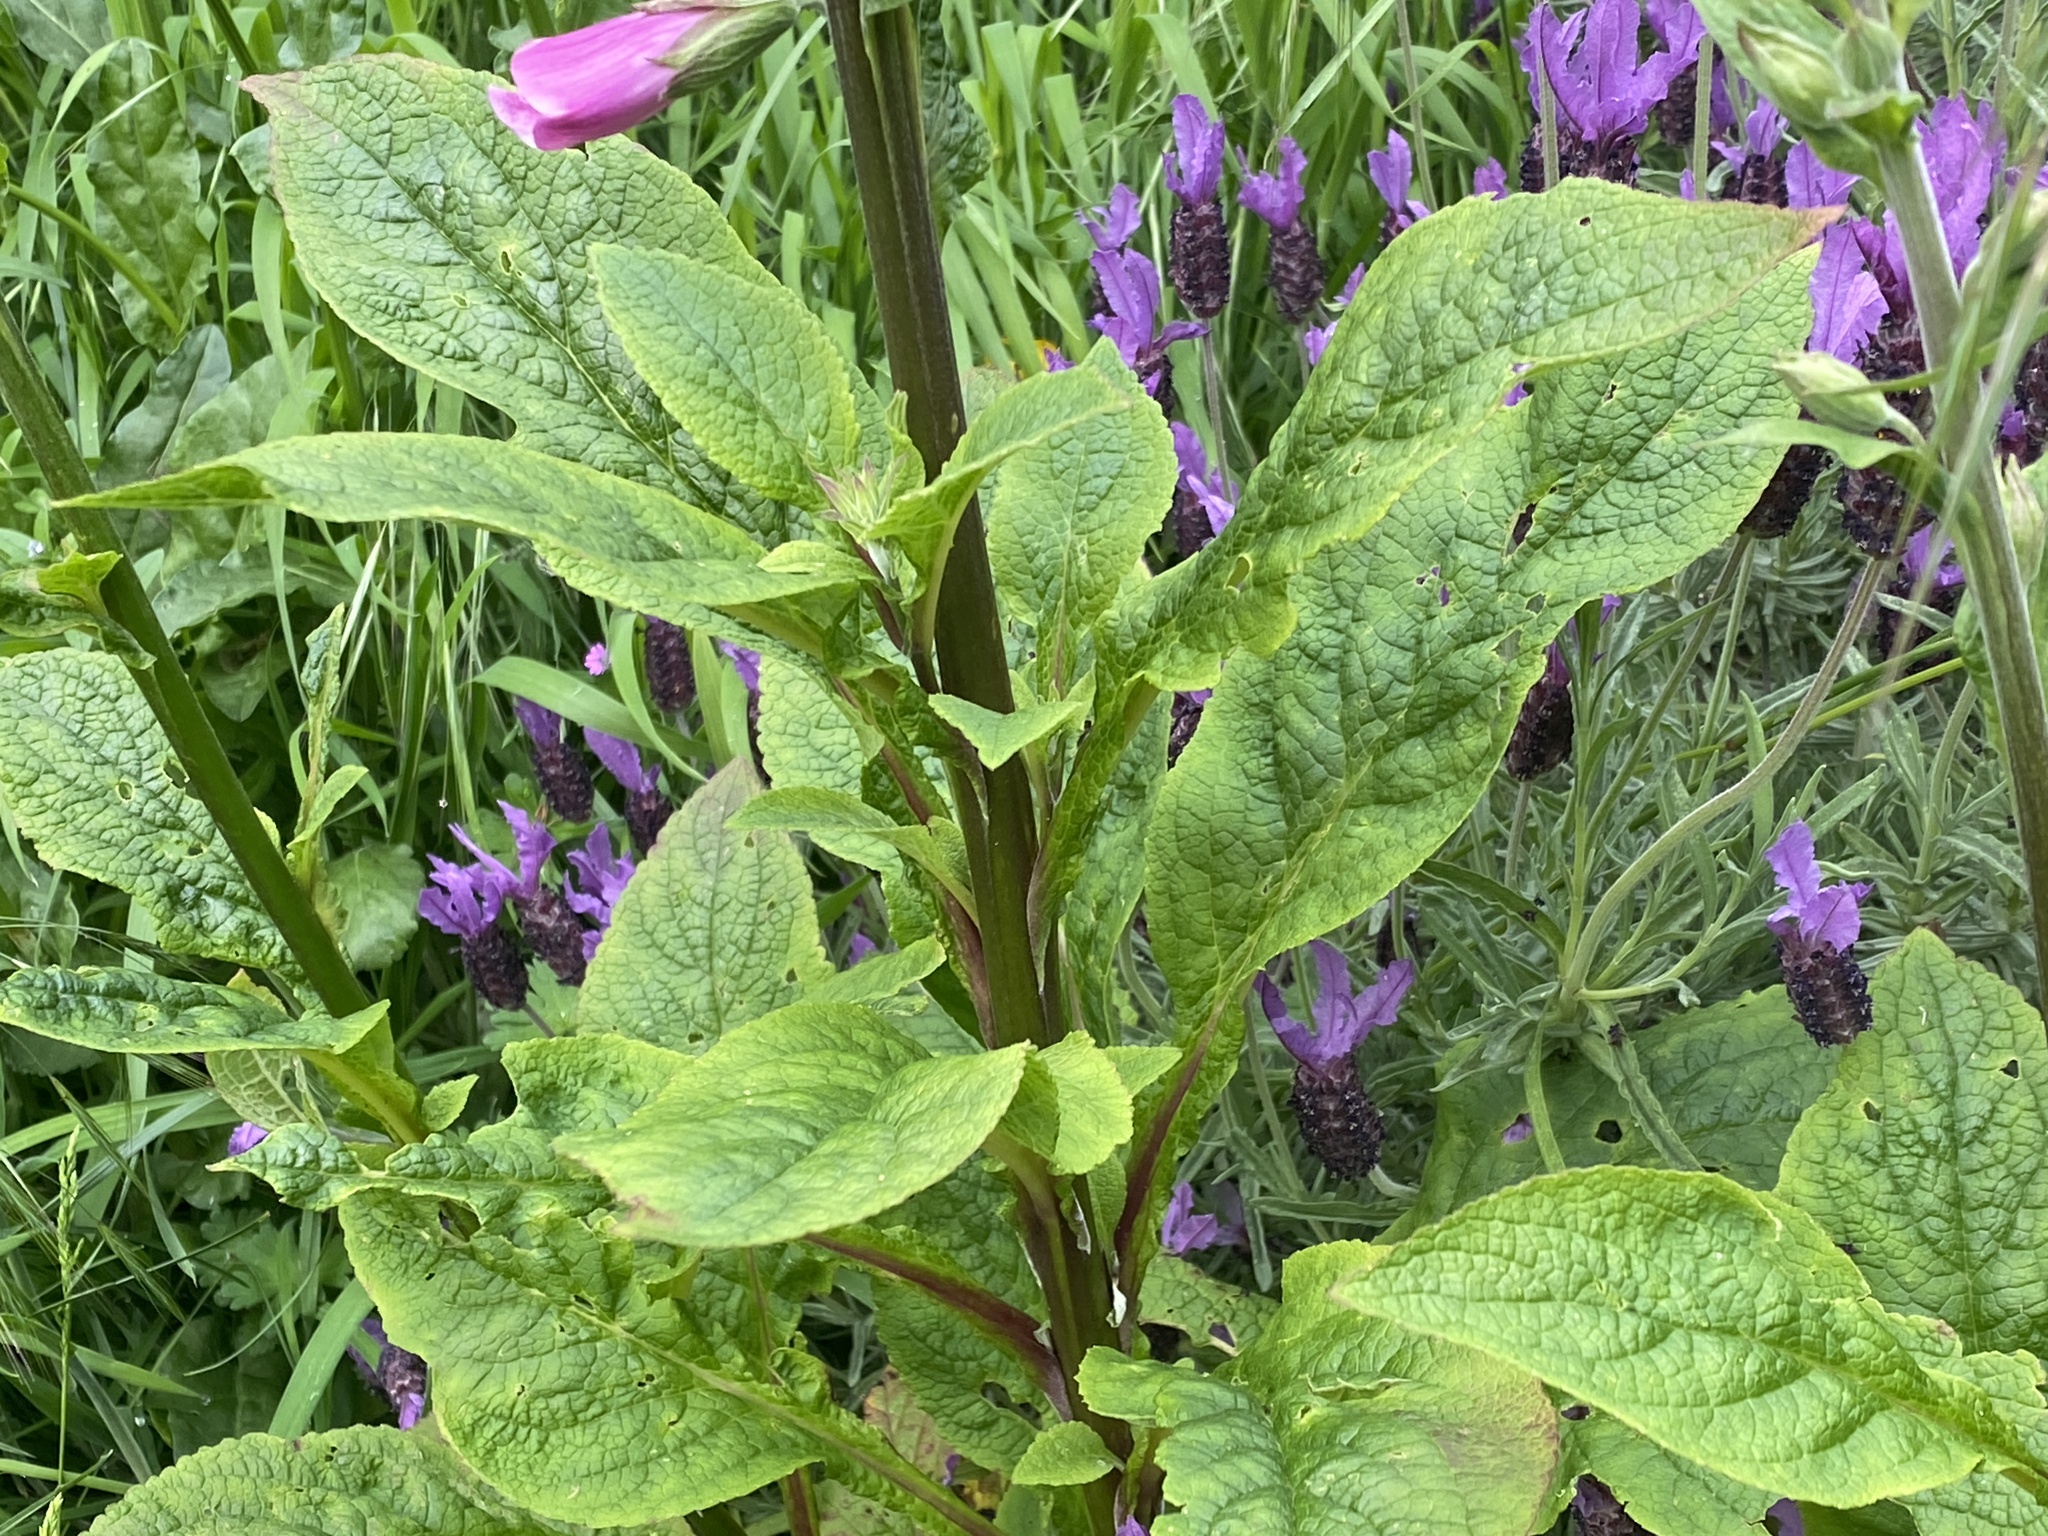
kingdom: Plantae
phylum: Tracheophyta
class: Magnoliopsida
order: Lamiales
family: Plantaginaceae
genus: Digitalis
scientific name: Digitalis purpurea
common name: Foxglove
